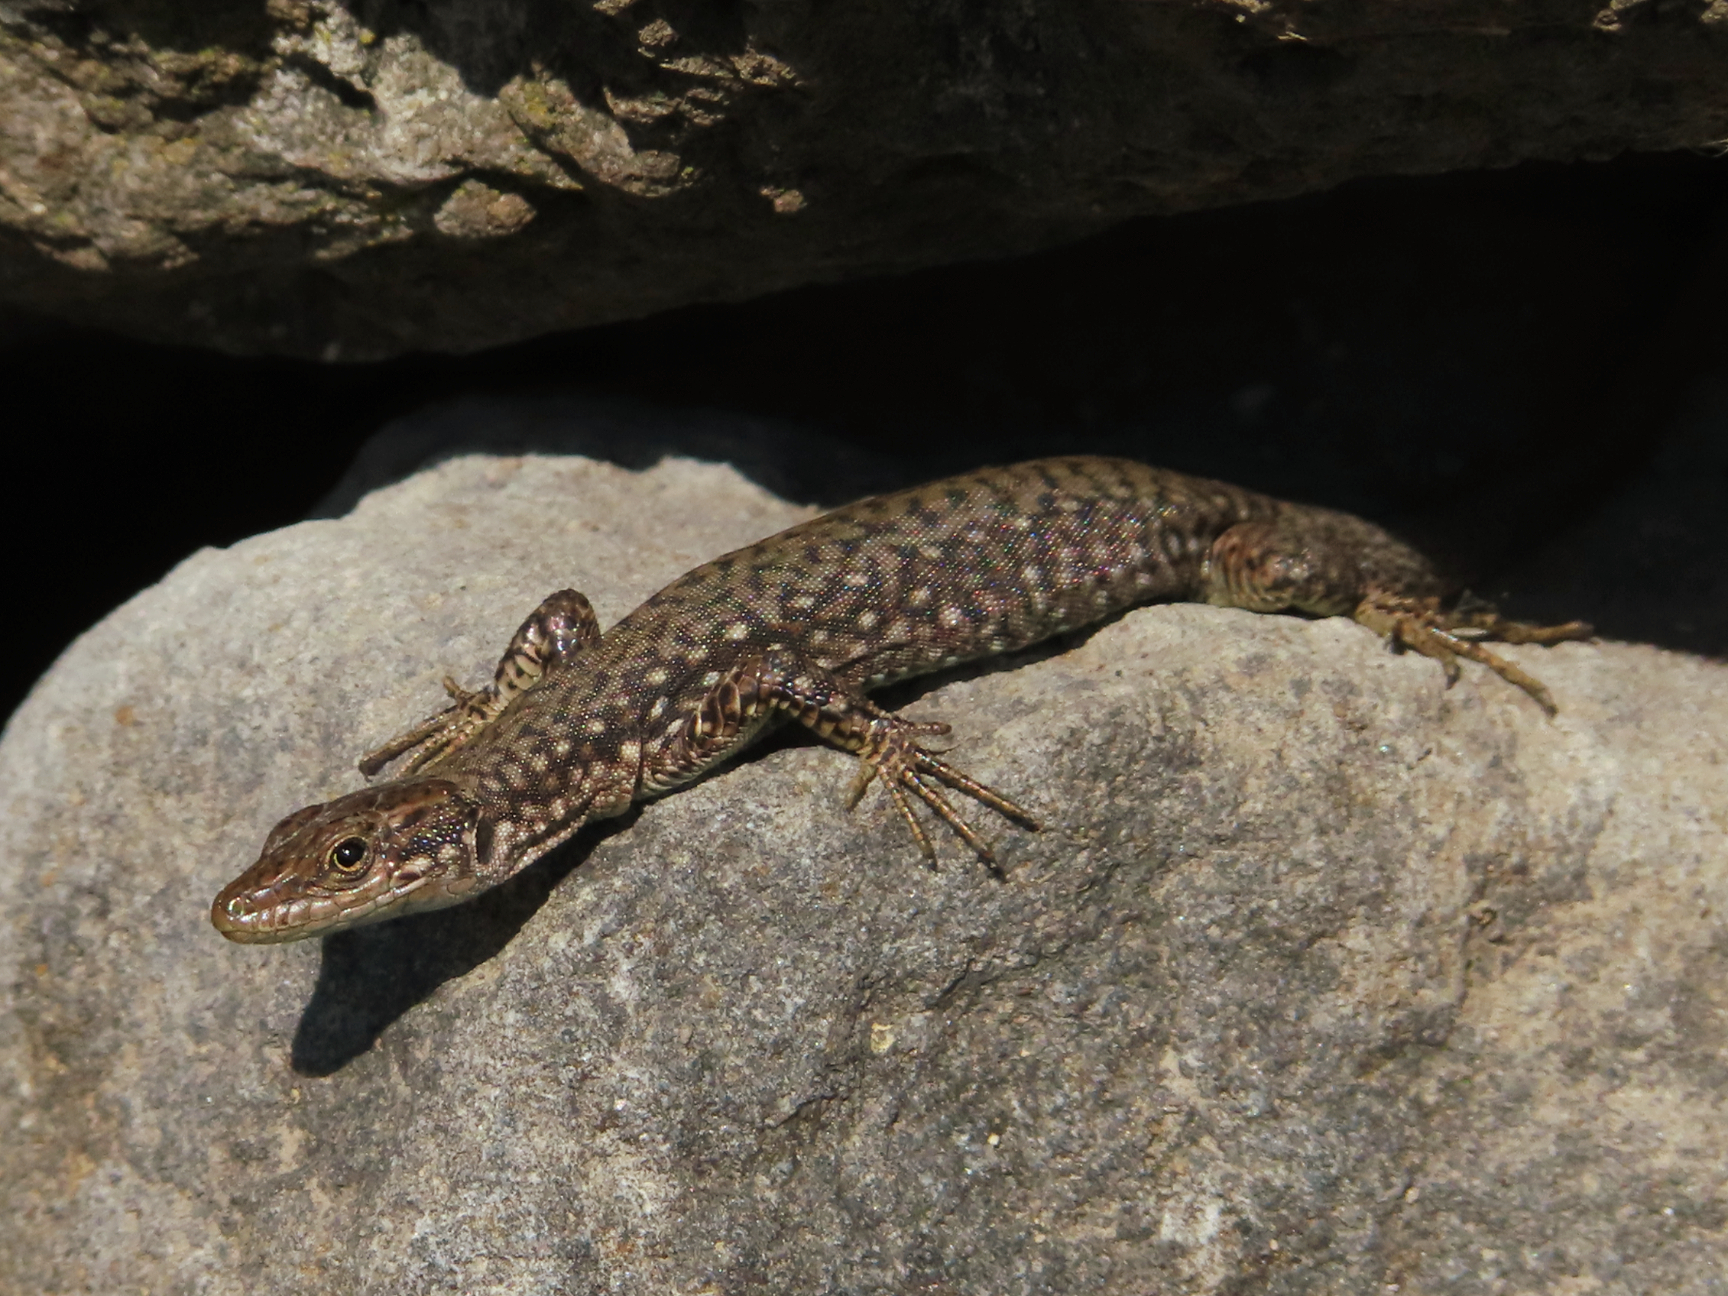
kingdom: Animalia
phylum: Chordata
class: Squamata
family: Lacertidae
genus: Darevskia
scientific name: Darevskia
